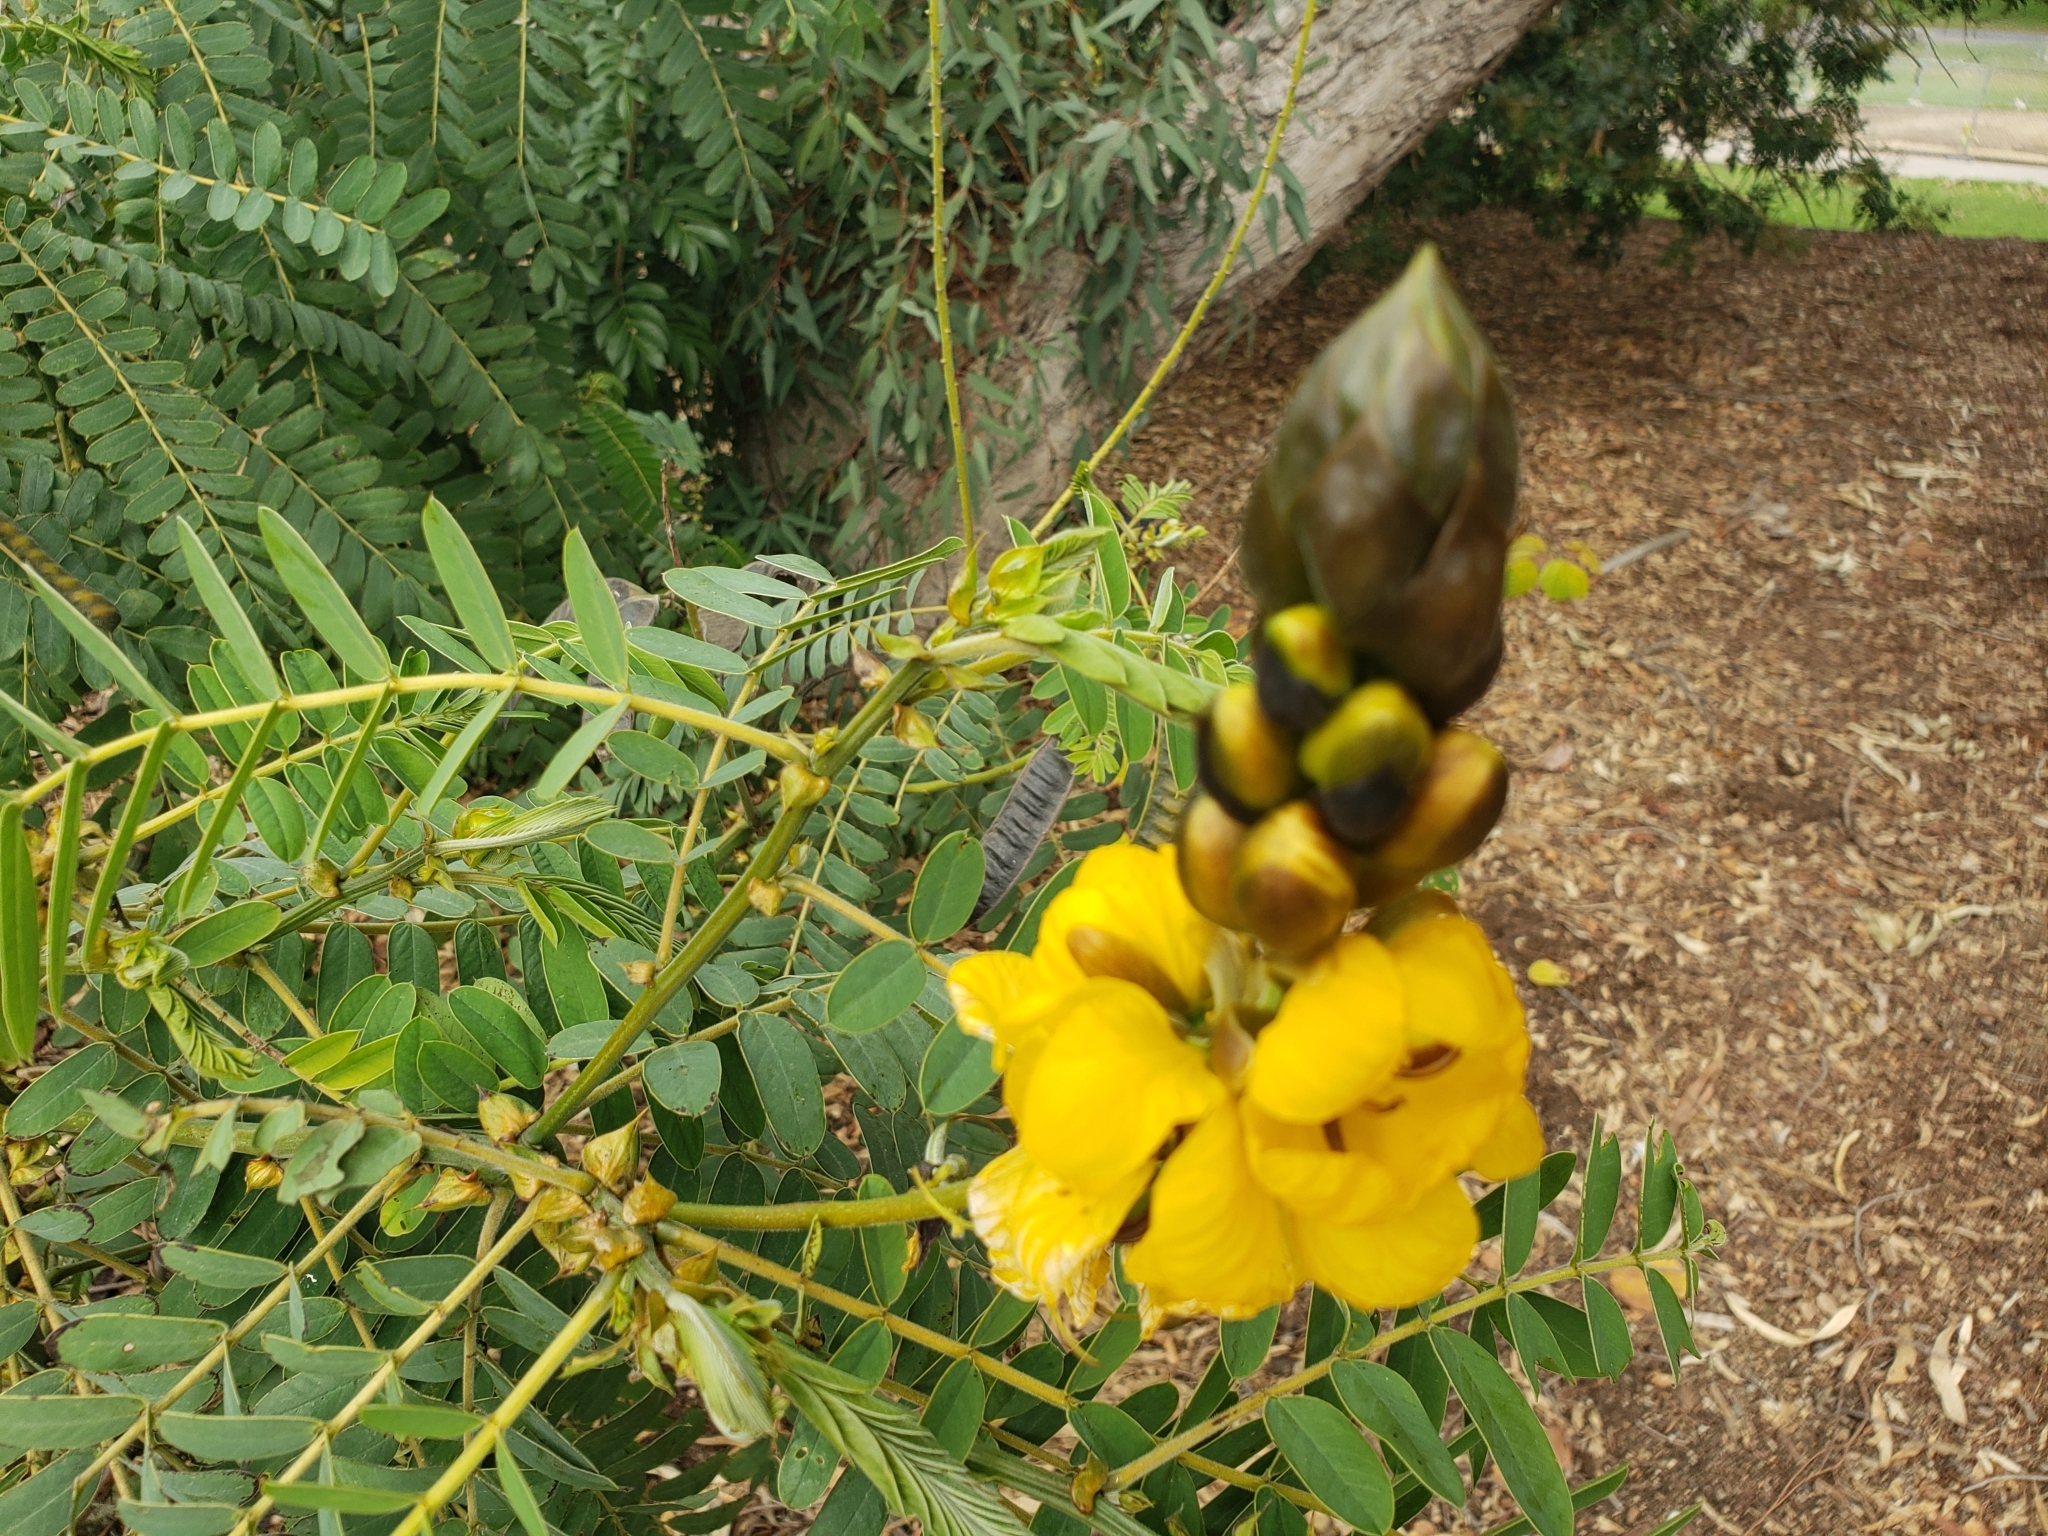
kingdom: Plantae
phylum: Tracheophyta
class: Magnoliopsida
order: Fabales
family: Fabaceae
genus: Senna
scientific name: Senna didymobotrya
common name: African senna
